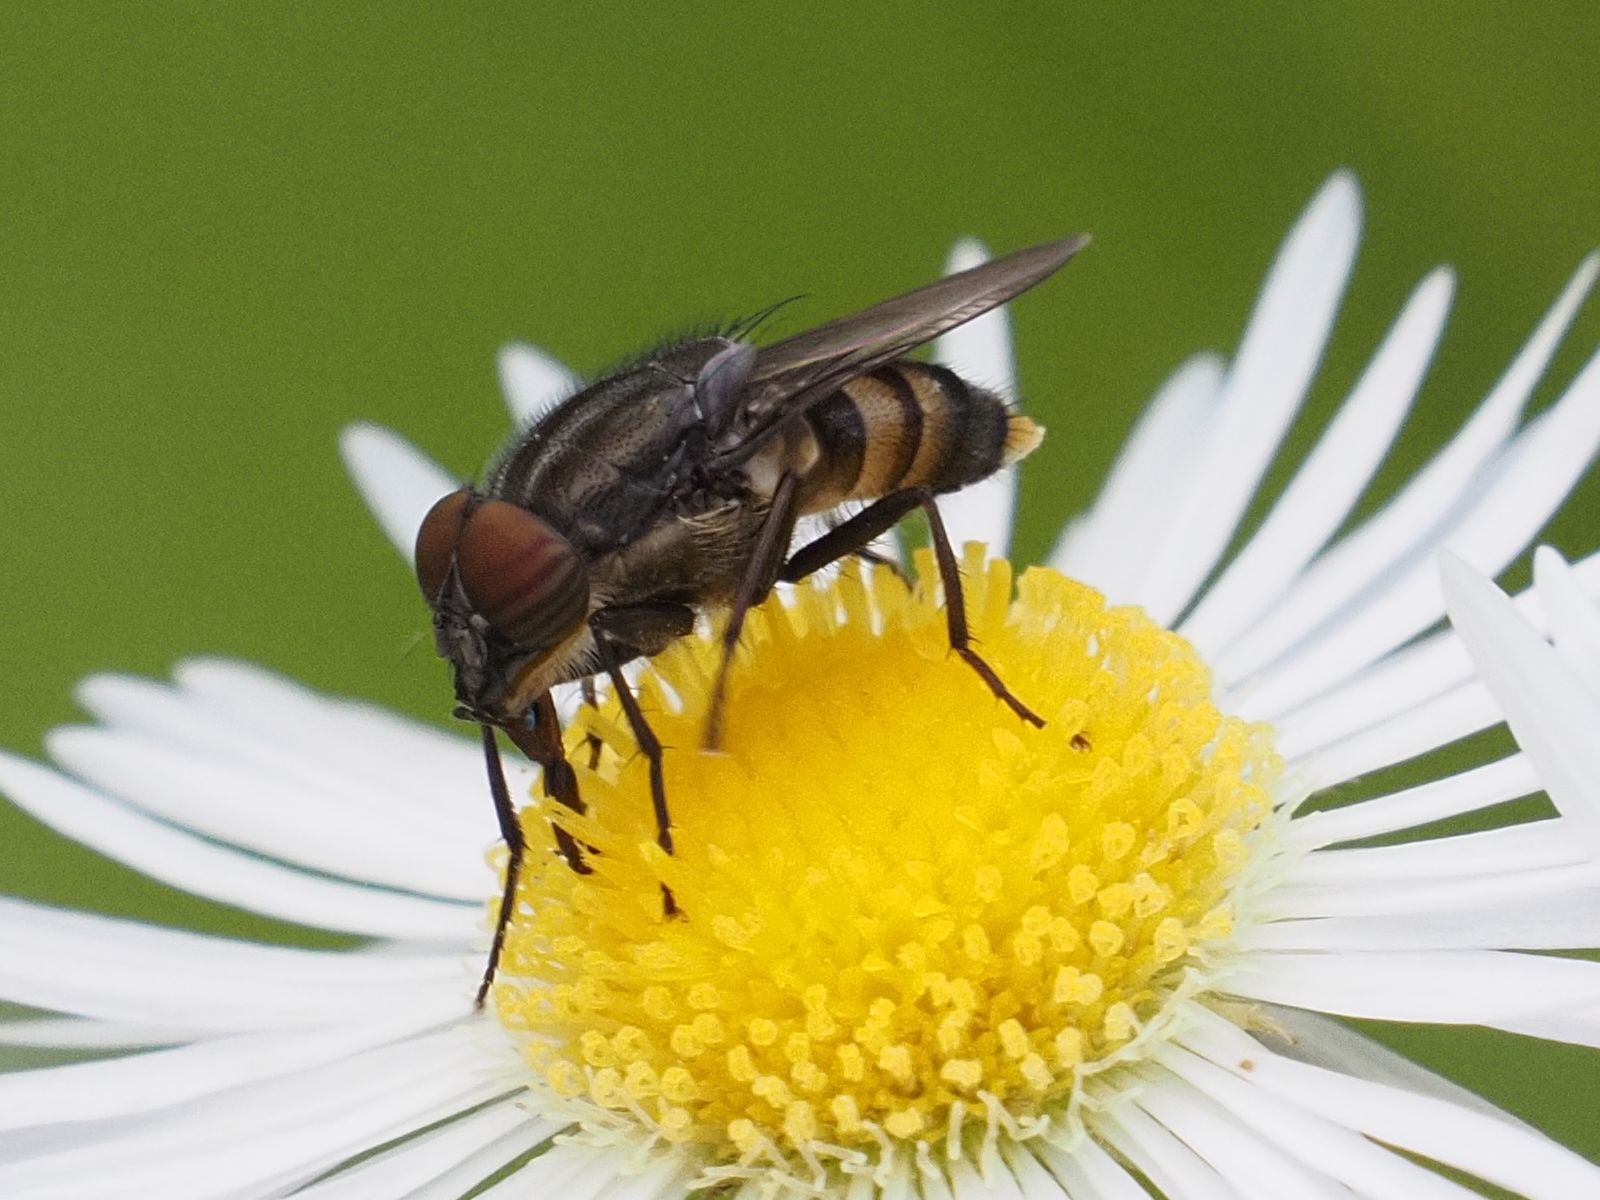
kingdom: Animalia
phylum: Arthropoda
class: Insecta
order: Diptera
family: Calliphoridae
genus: Stomorhina
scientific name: Stomorhina lunata
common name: Locust blowfly
